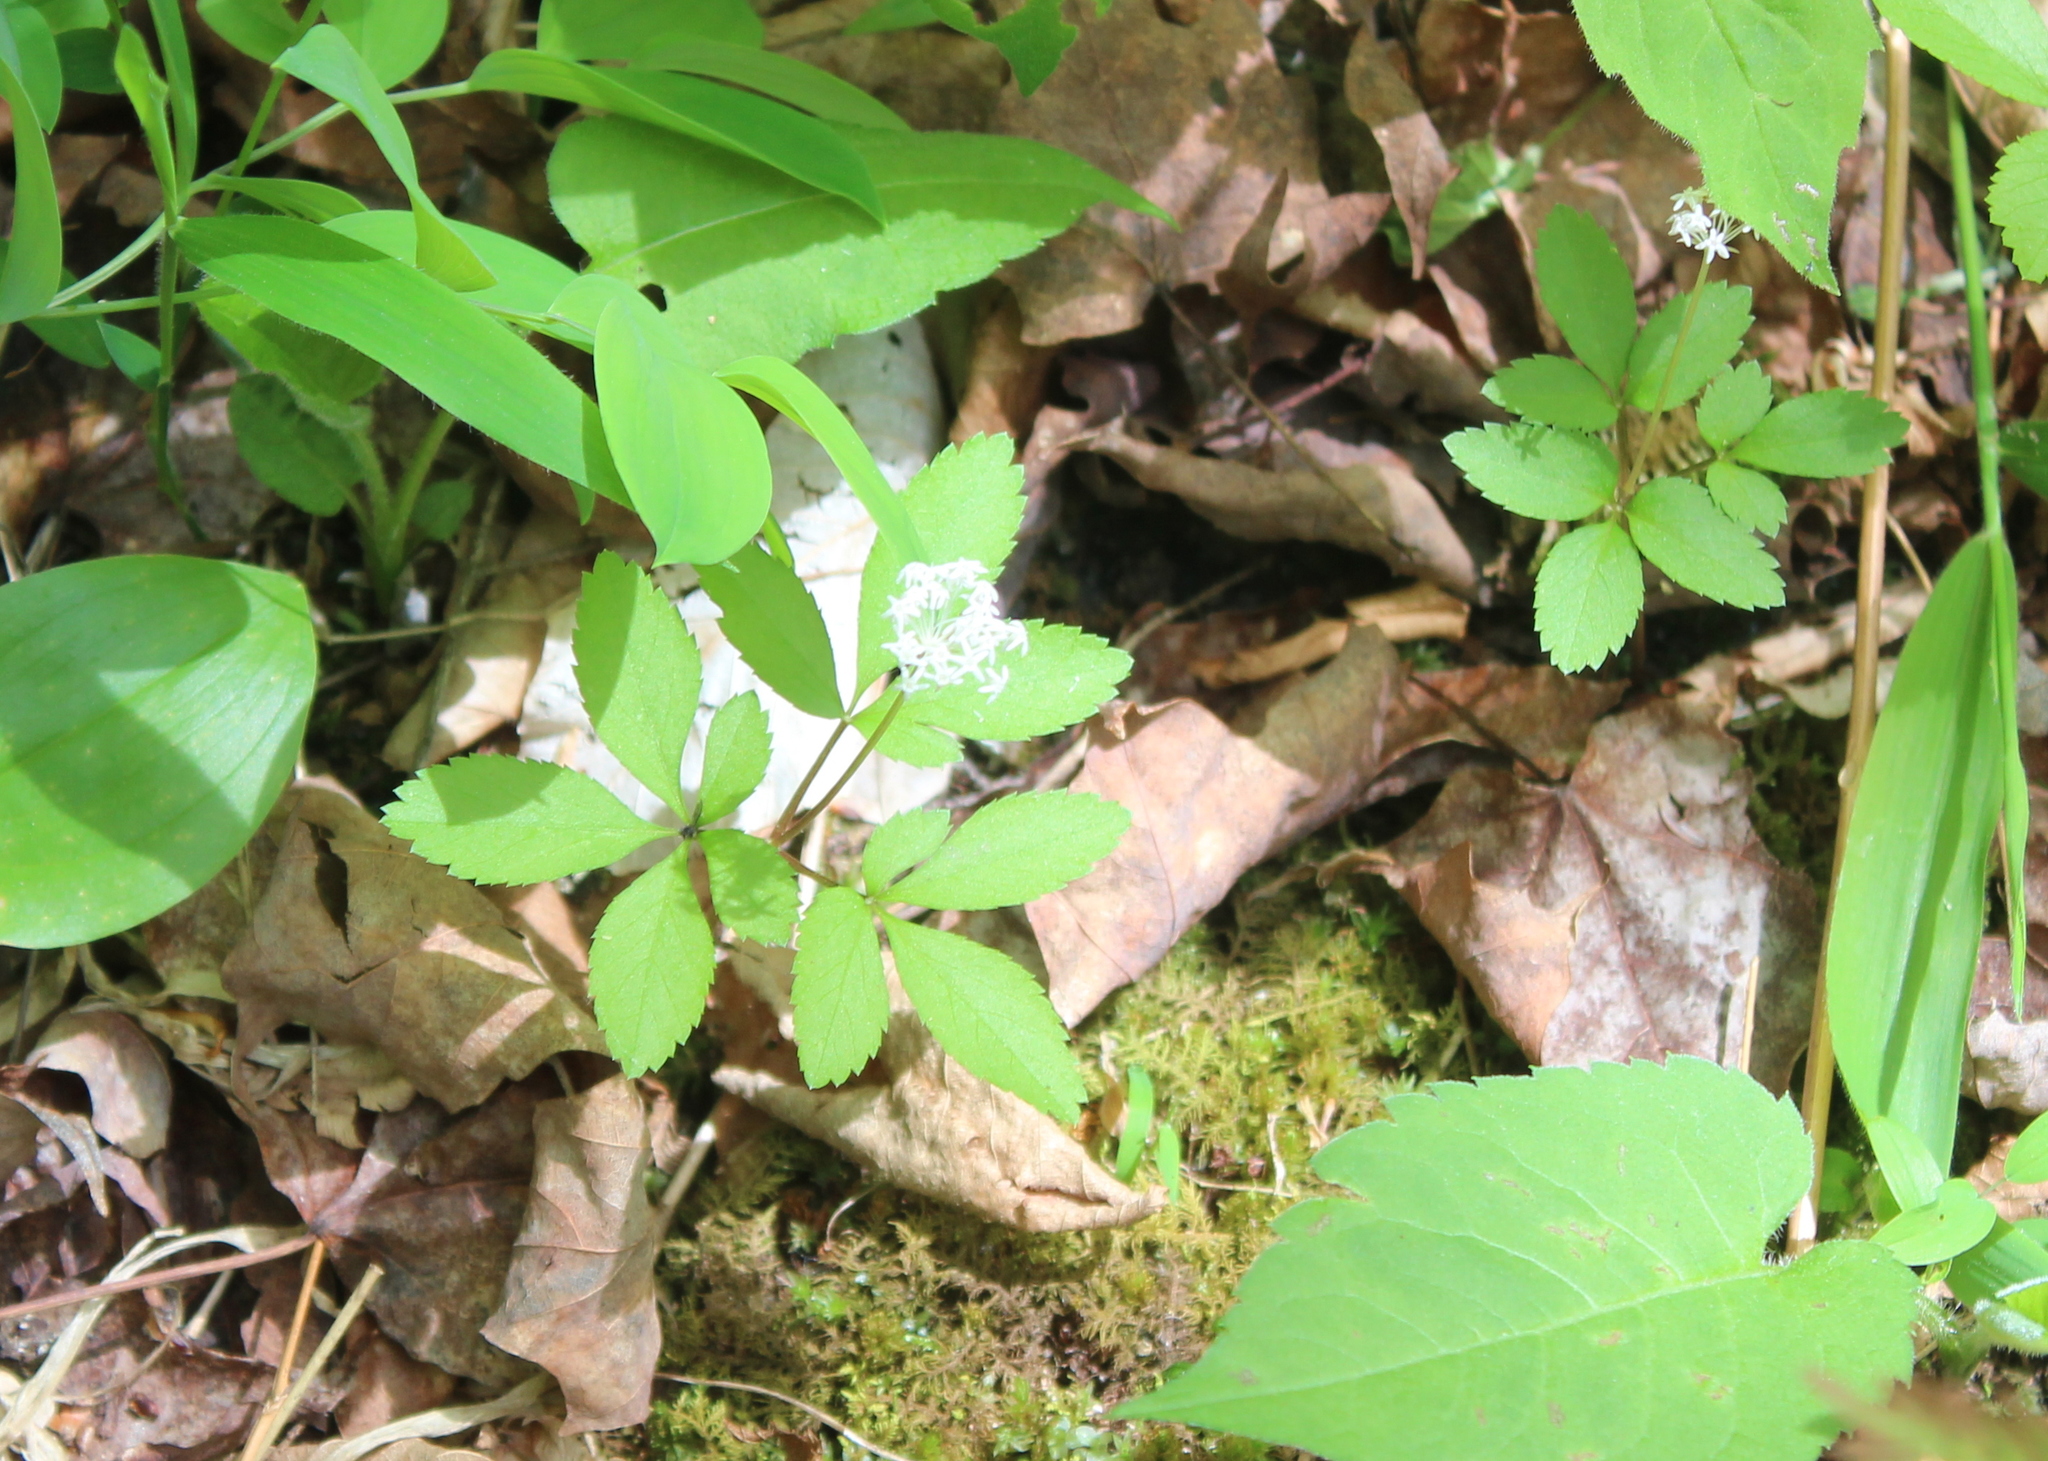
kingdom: Plantae
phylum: Tracheophyta
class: Magnoliopsida
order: Apiales
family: Araliaceae
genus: Panax
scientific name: Panax trifolius
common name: Dwarf ginseng
